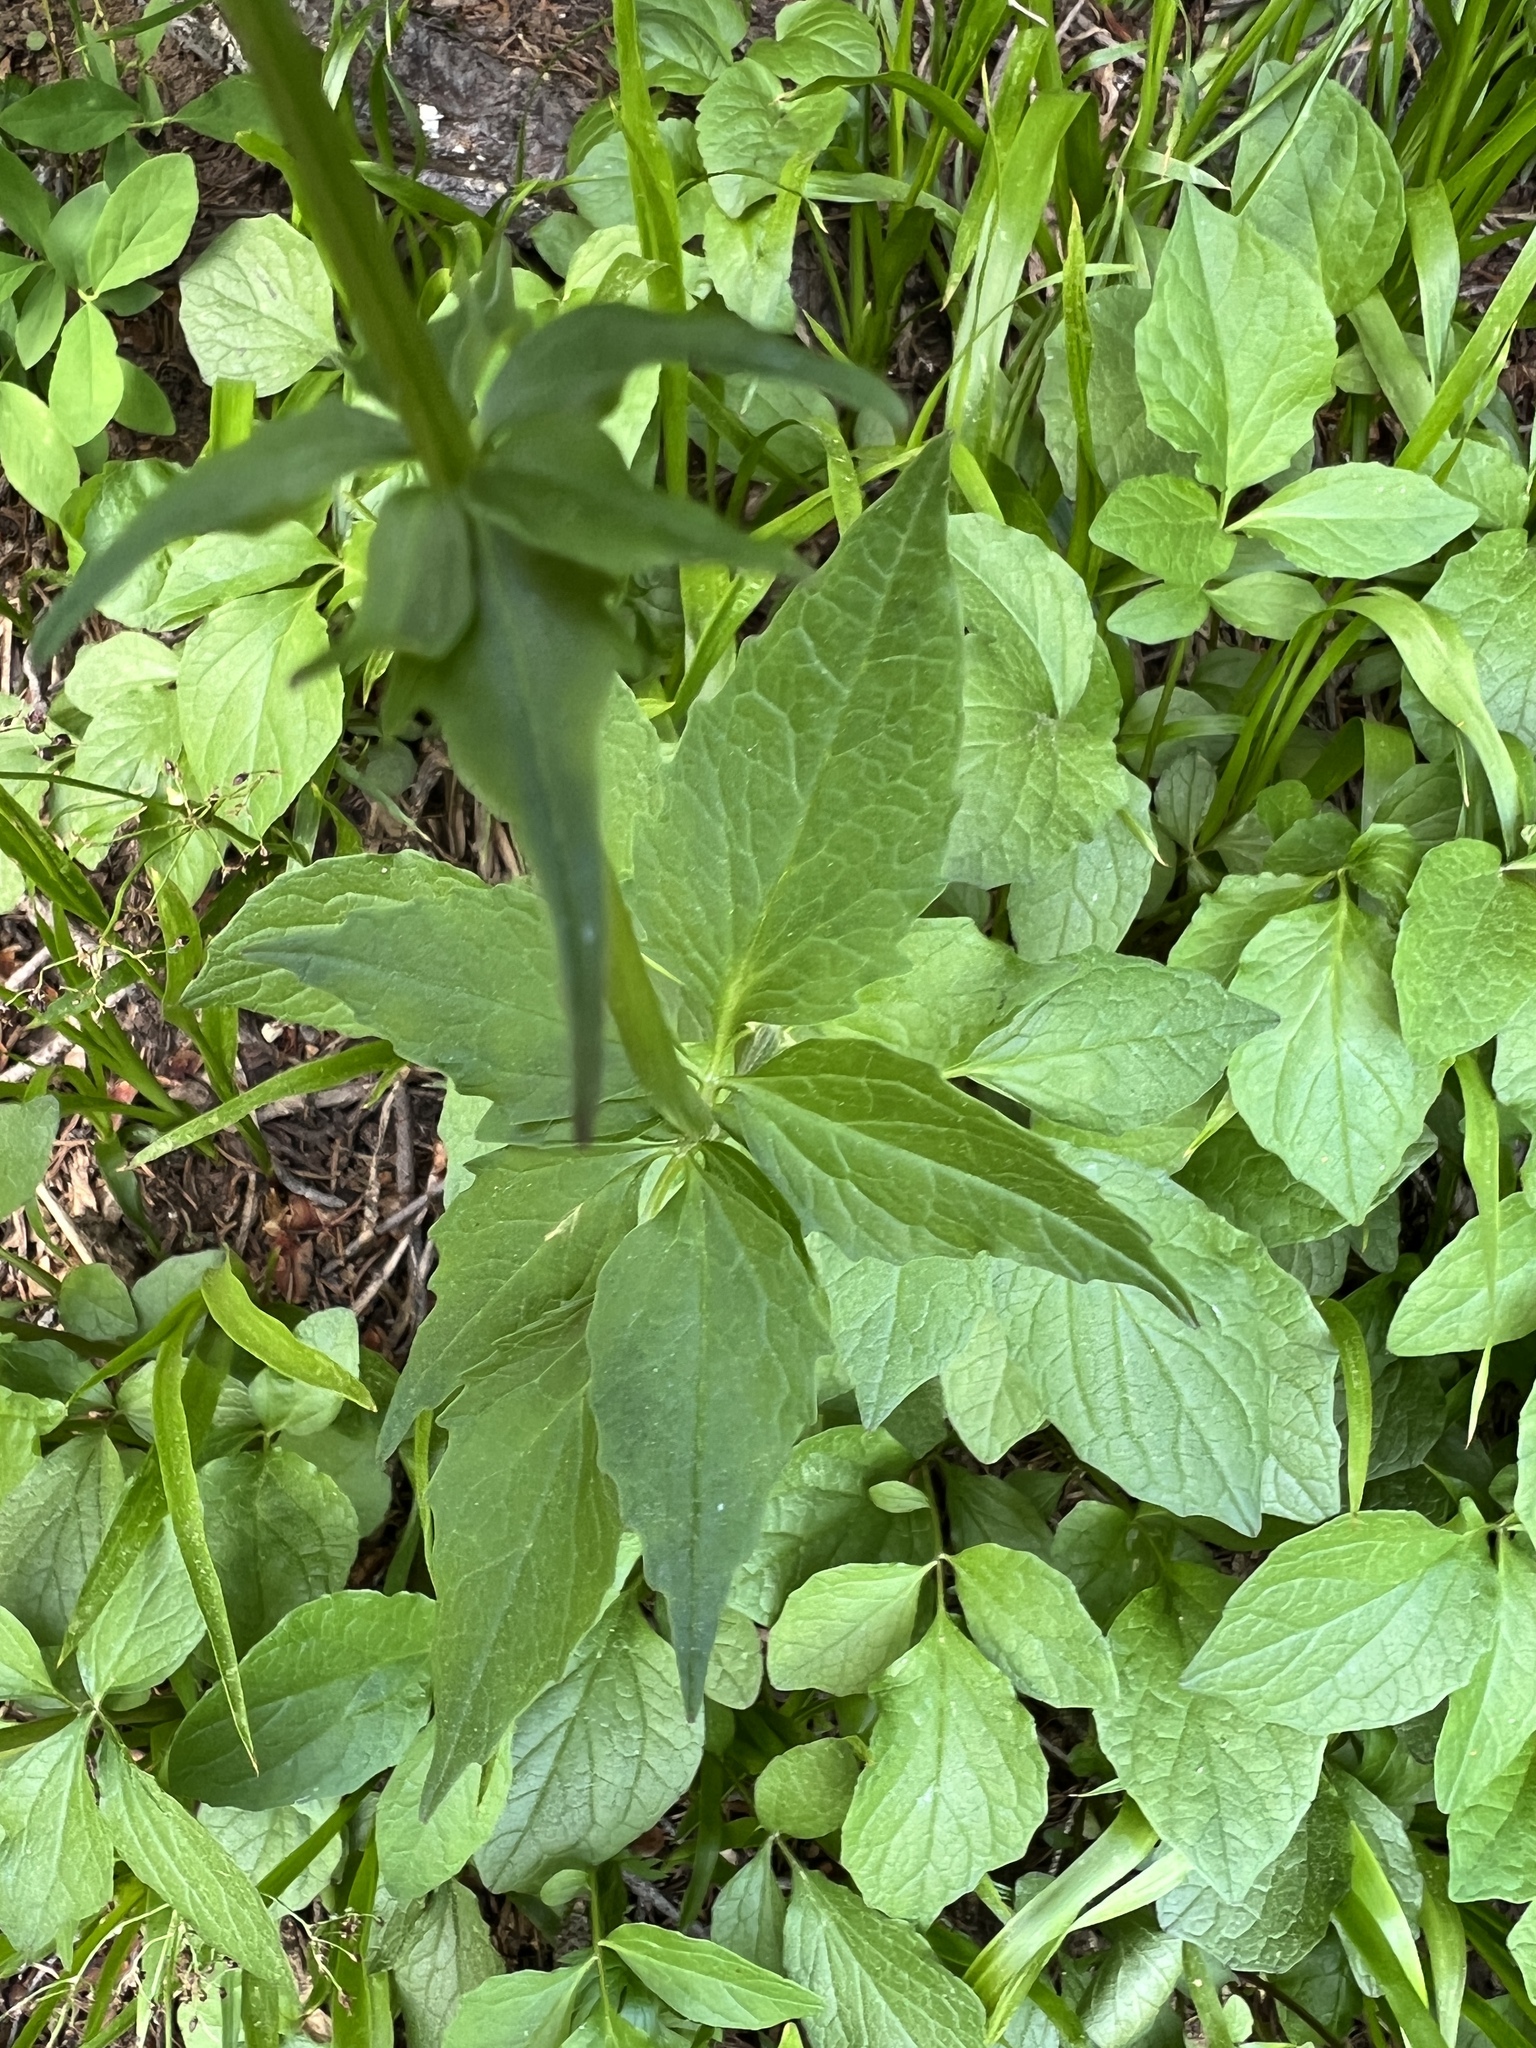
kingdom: Plantae
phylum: Tracheophyta
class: Magnoliopsida
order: Dipsacales
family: Caprifoliaceae
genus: Valeriana
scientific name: Valeriana sitchensis
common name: Pacific valerian
